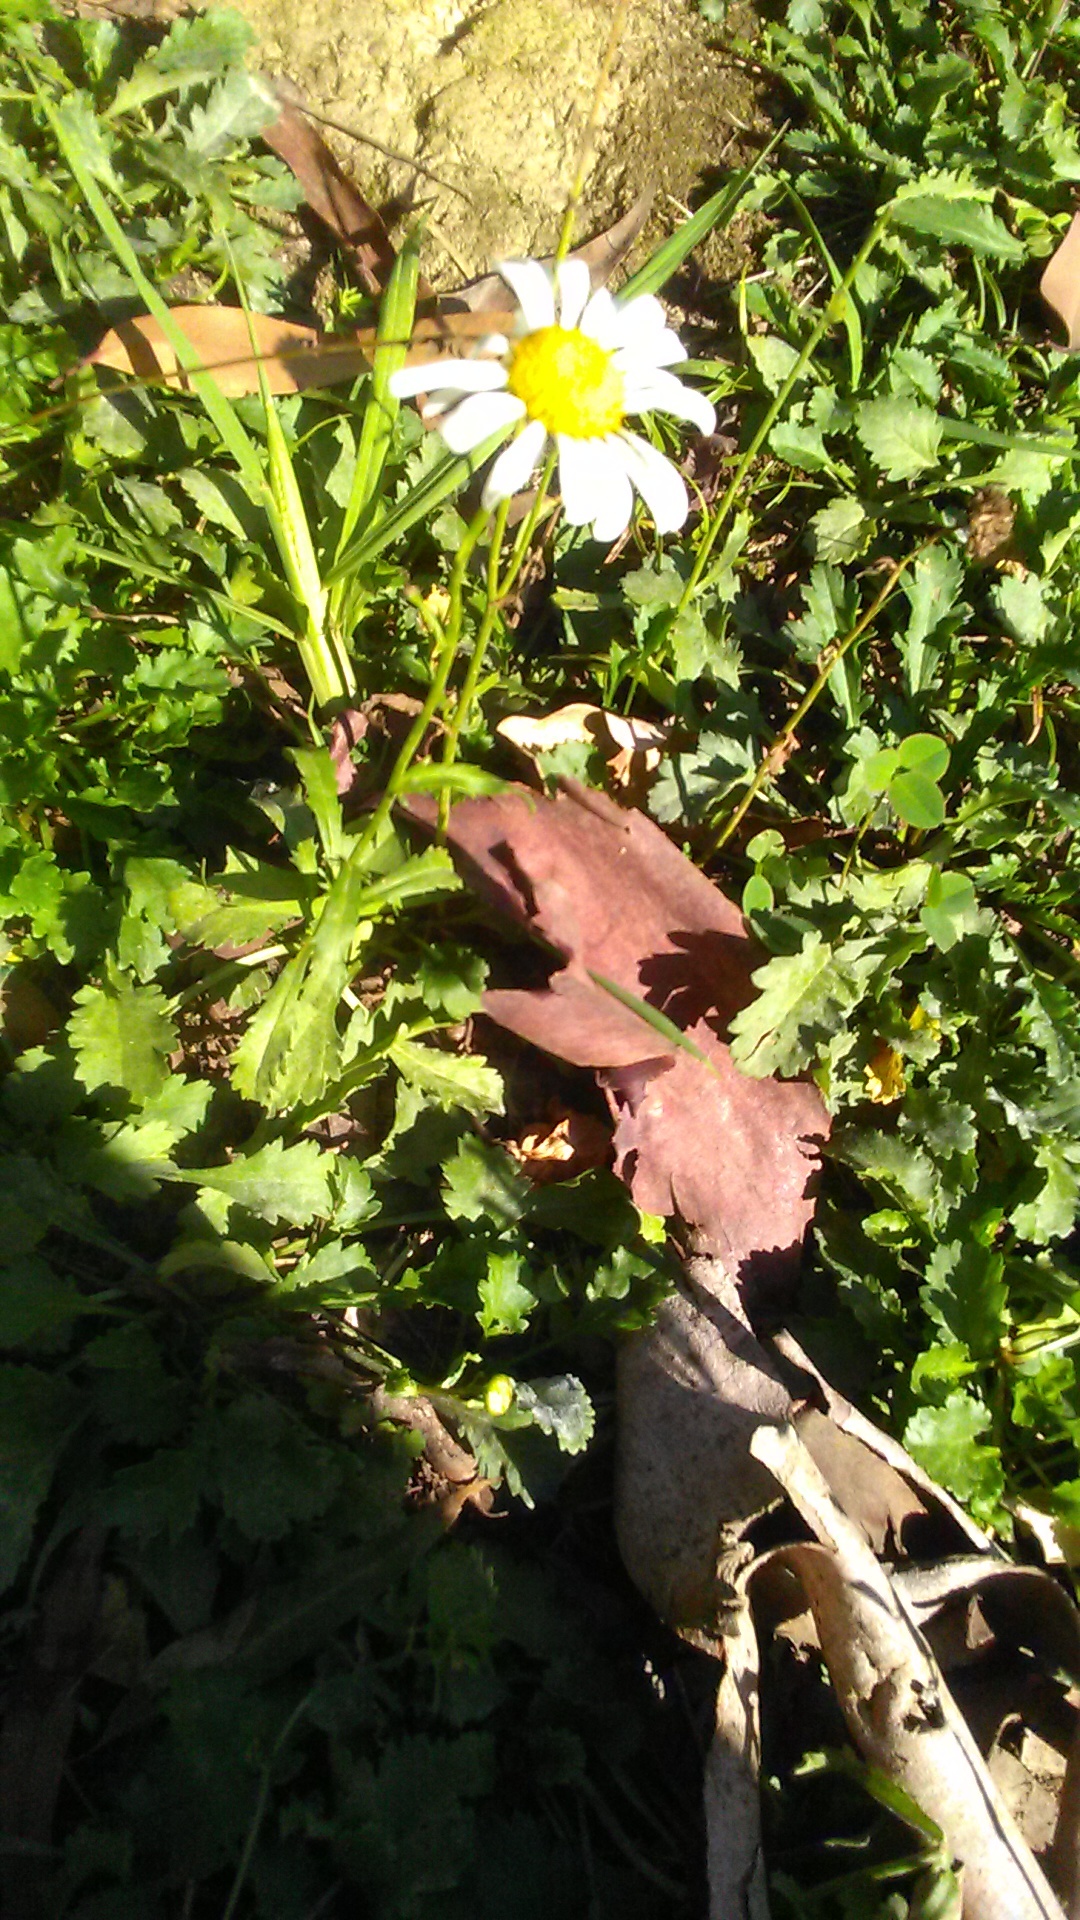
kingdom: Plantae
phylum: Tracheophyta
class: Magnoliopsida
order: Asterales
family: Asteraceae
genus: Leucanthemum
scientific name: Leucanthemum vulgare
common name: Oxeye daisy
